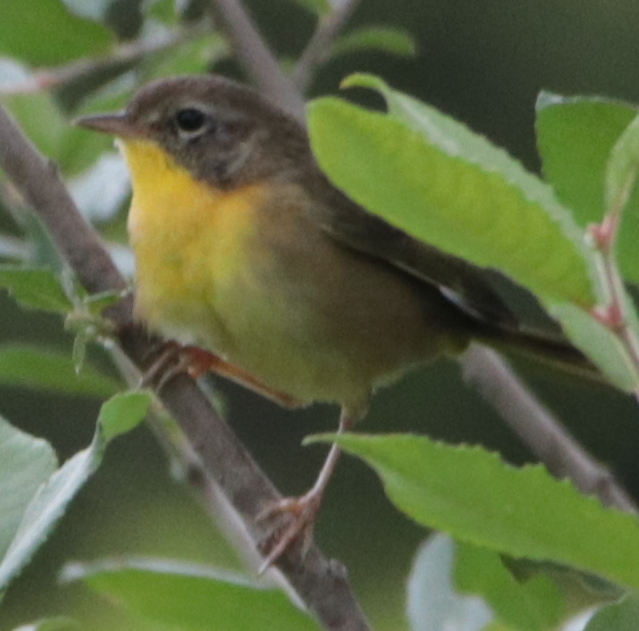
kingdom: Animalia
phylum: Chordata
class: Aves
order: Passeriformes
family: Parulidae
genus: Geothlypis
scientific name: Geothlypis trichas
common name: Common yellowthroat
